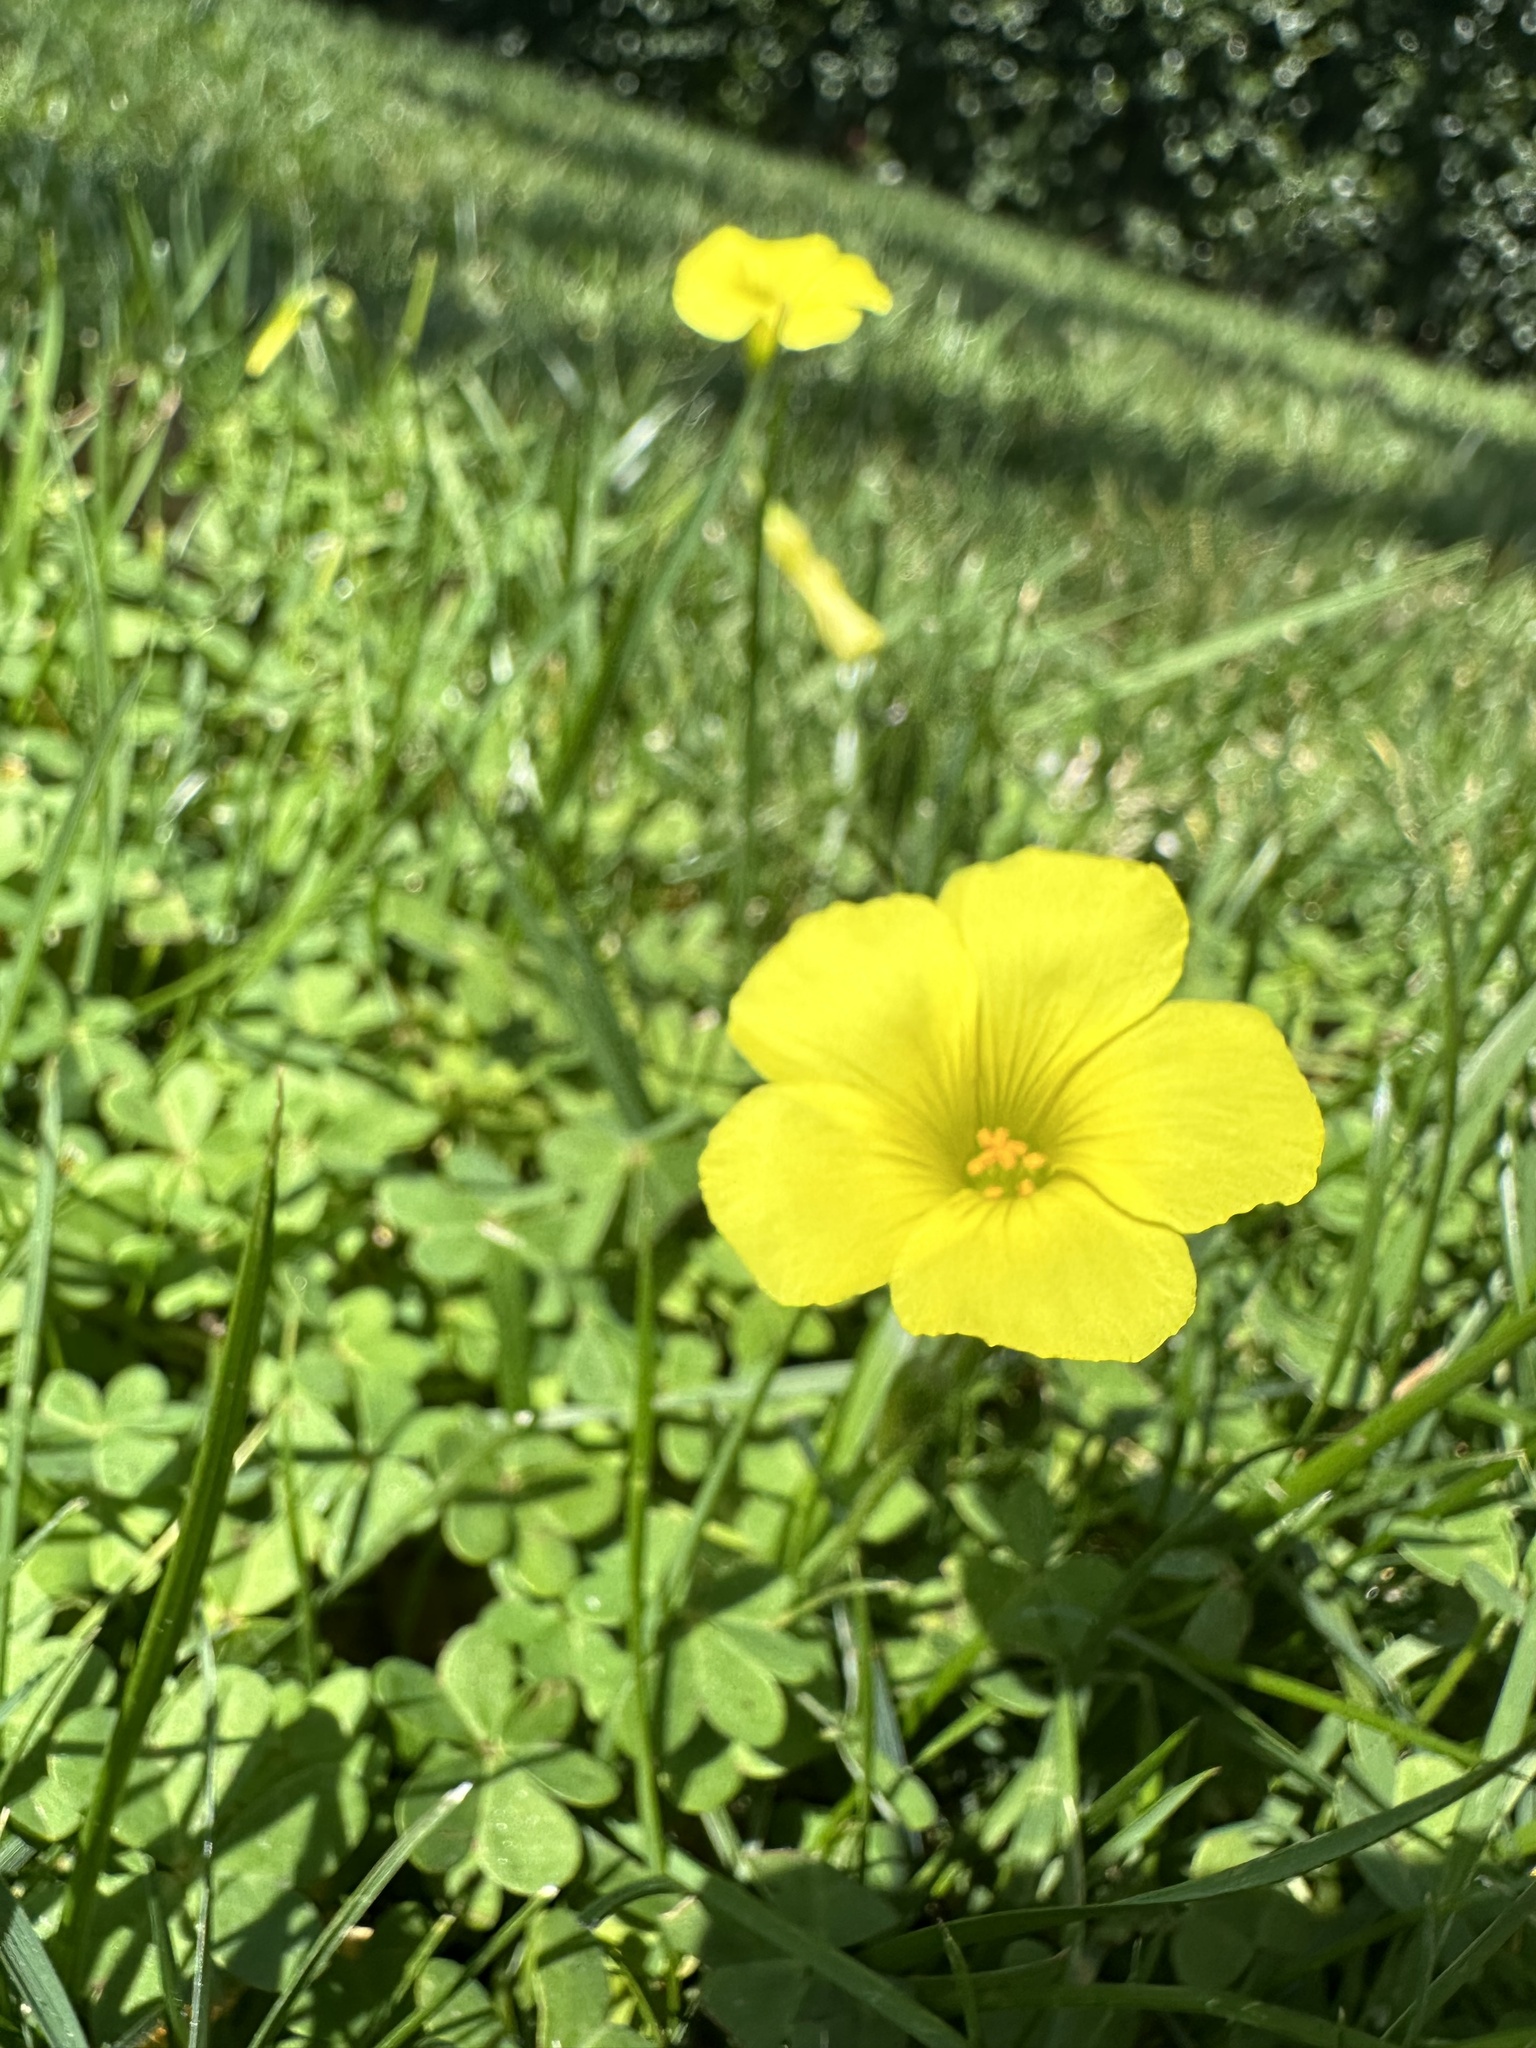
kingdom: Plantae
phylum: Tracheophyta
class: Magnoliopsida
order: Oxalidales
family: Oxalidaceae
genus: Oxalis
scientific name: Oxalis pes-caprae
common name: Bermuda-buttercup
